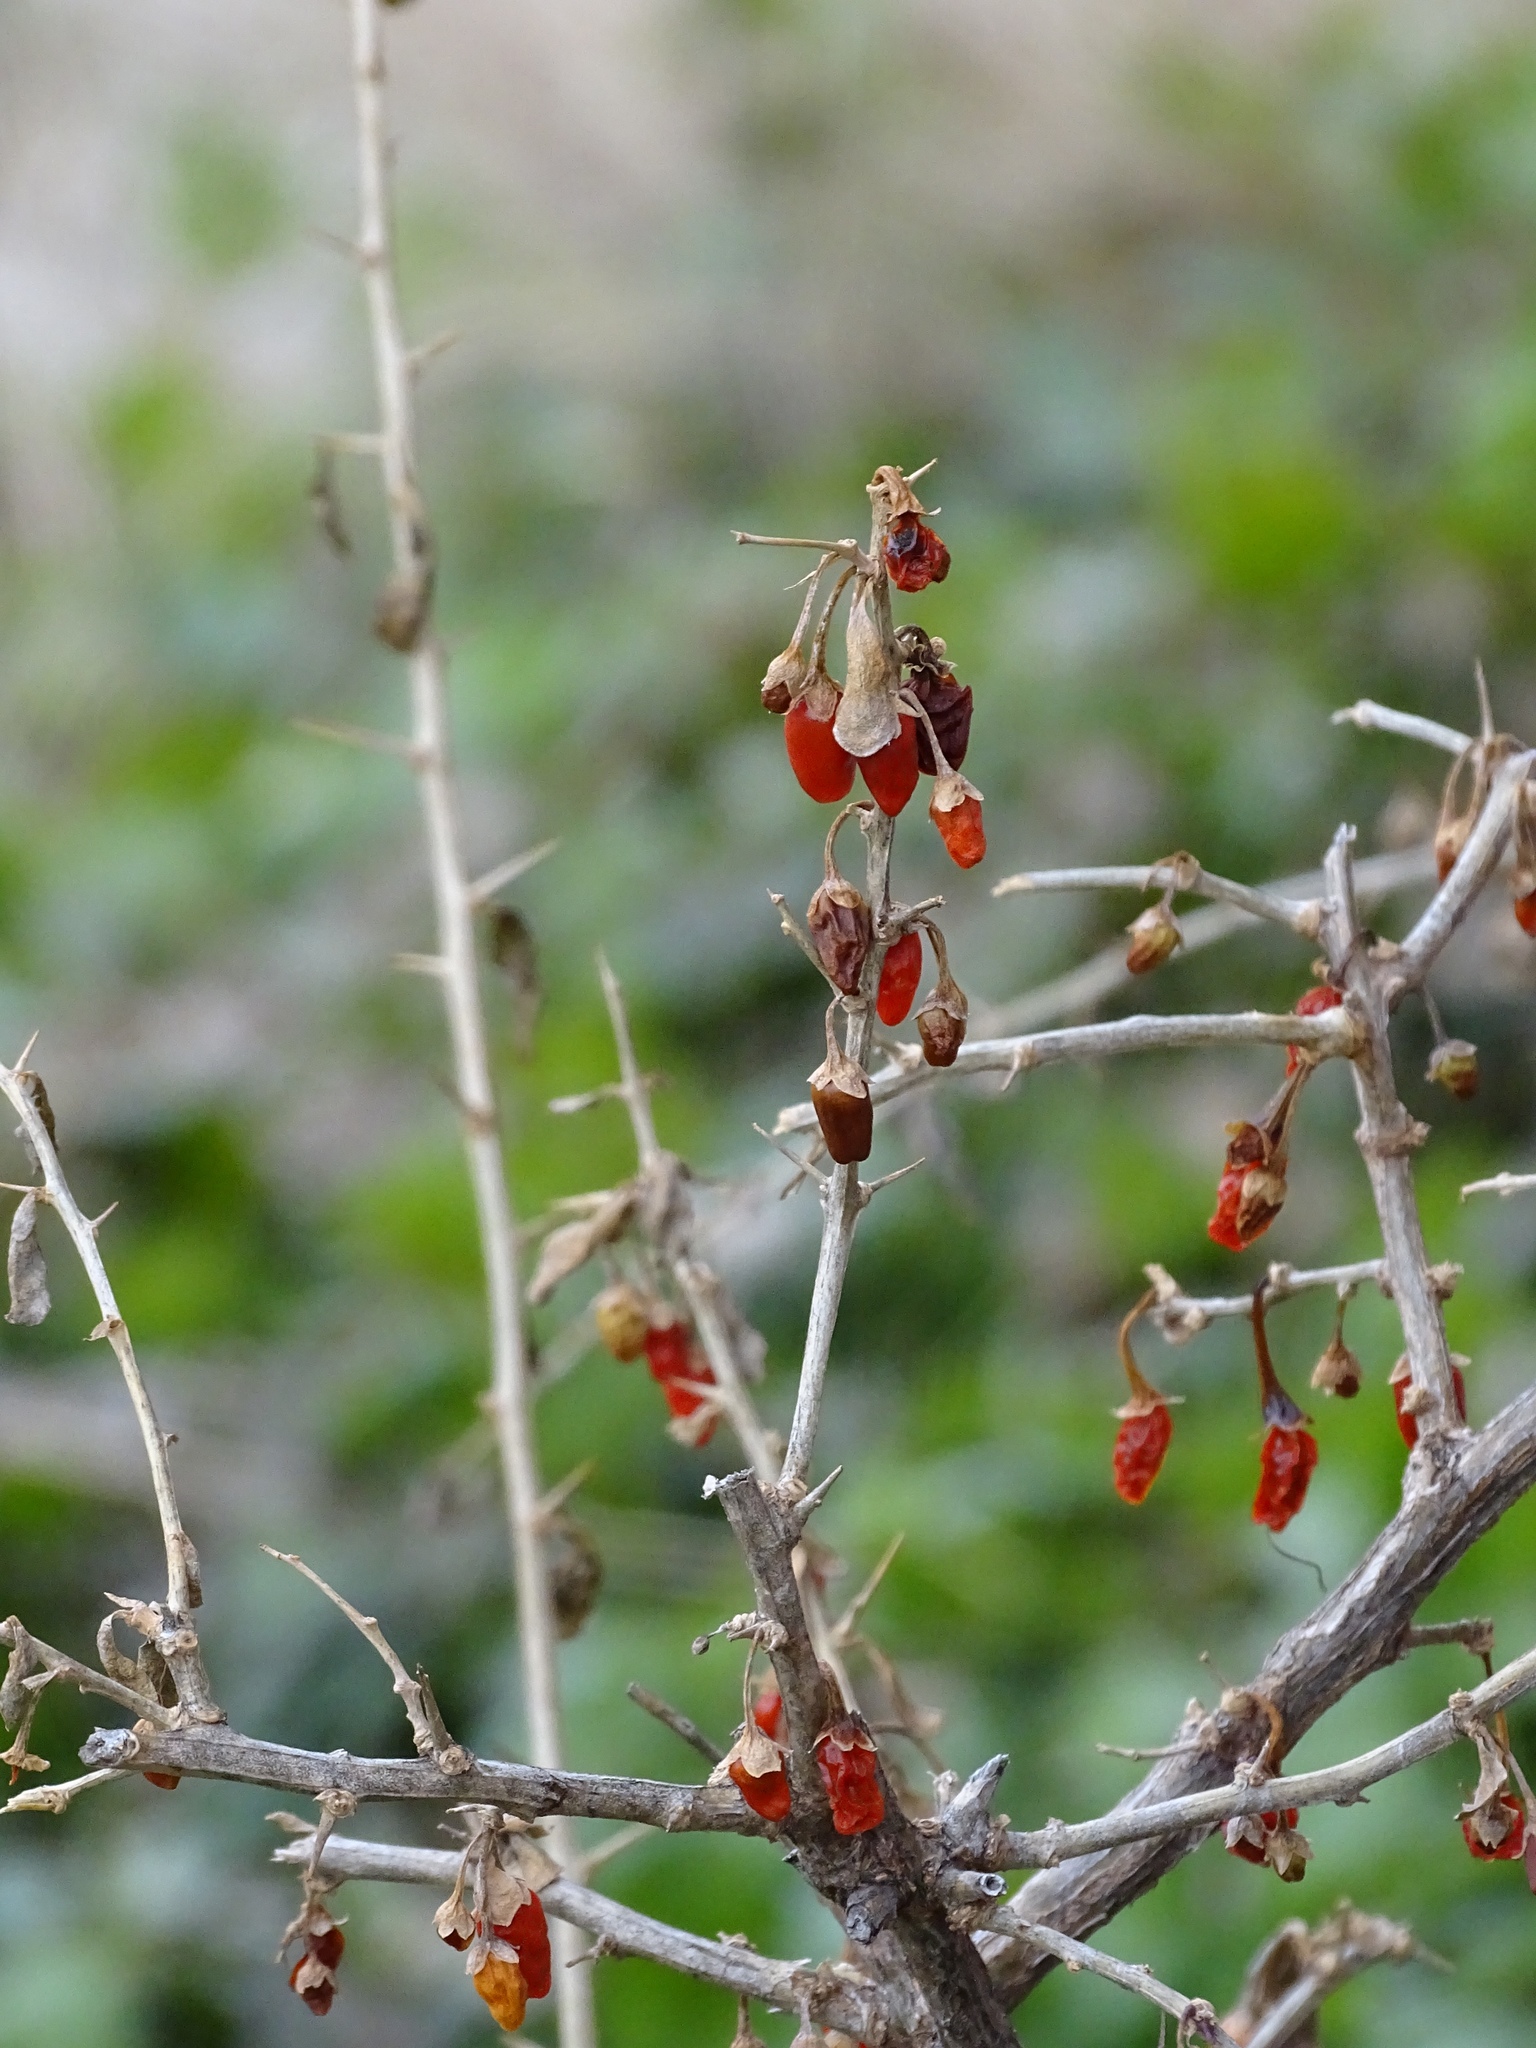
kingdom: Plantae
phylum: Tracheophyta
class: Magnoliopsida
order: Solanales
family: Solanaceae
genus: Lycium
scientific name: Lycium barbarum
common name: Duke of argyll's teaplant
